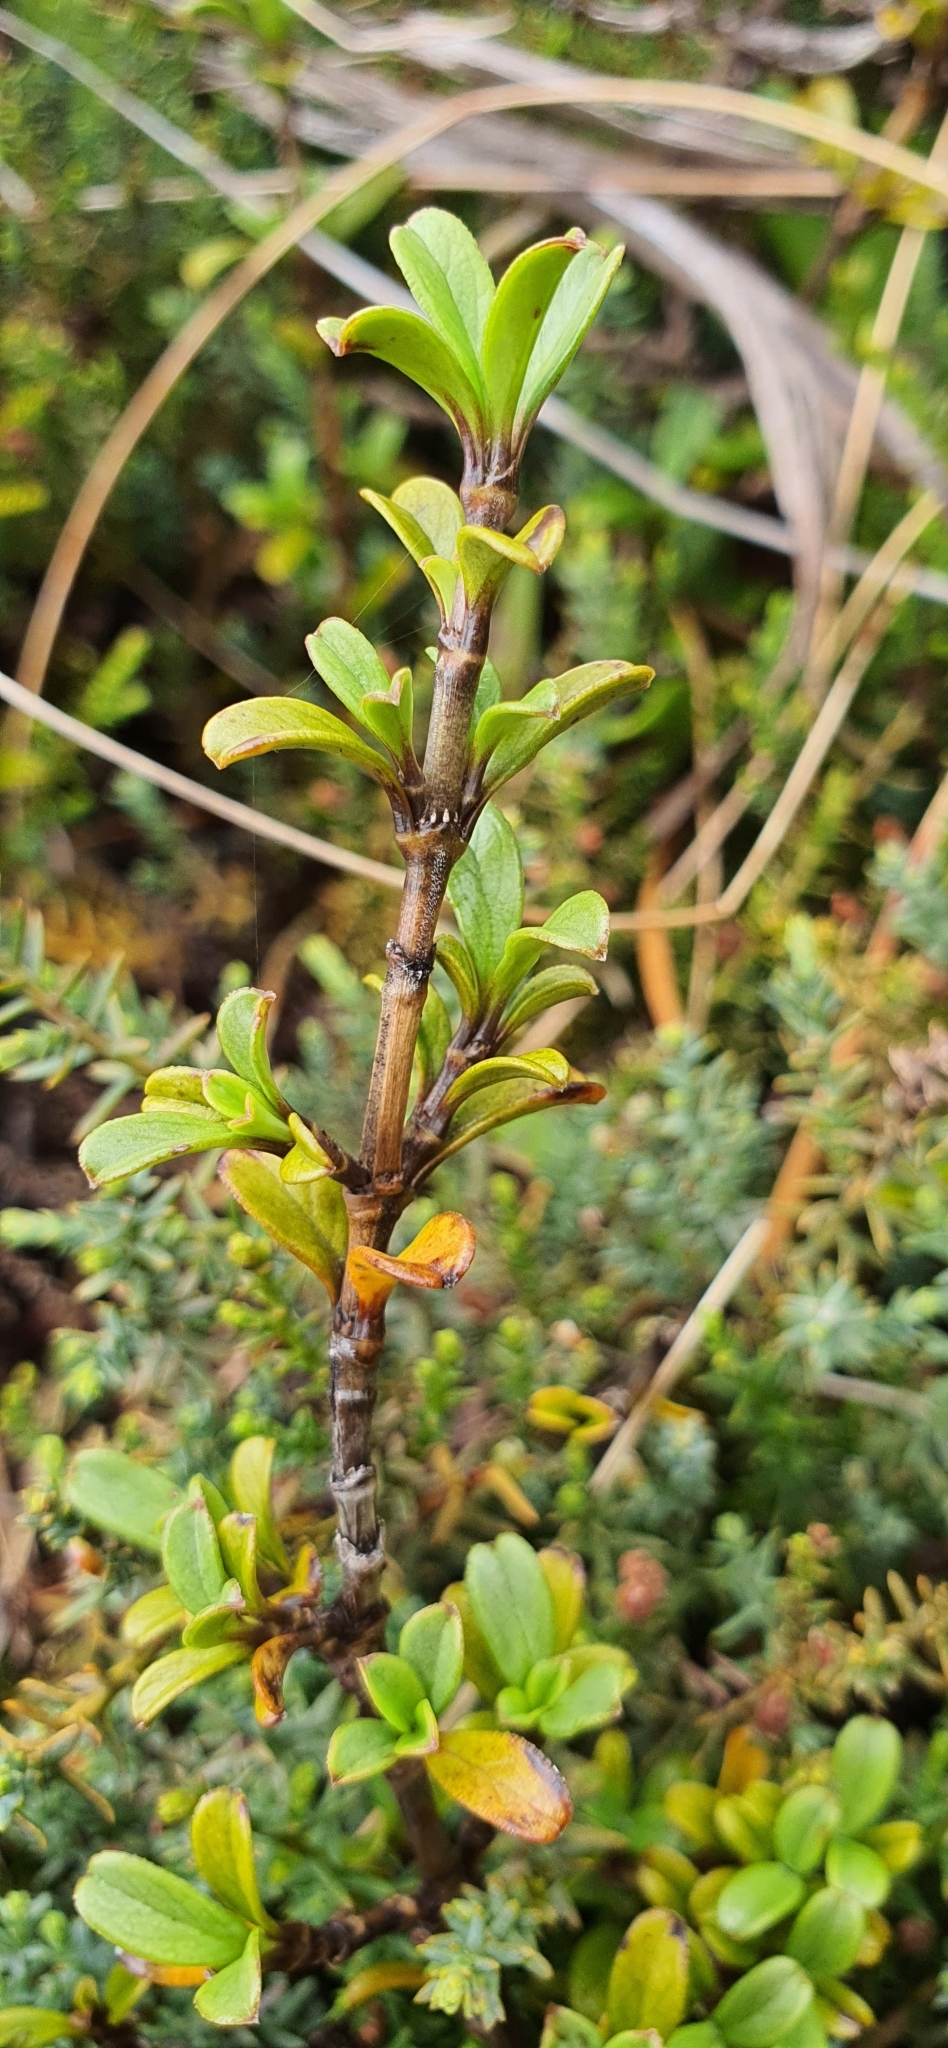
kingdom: Plantae
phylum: Tracheophyta
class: Magnoliopsida
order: Gentianales
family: Rubiaceae
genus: Coprosma
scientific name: Coprosma crenulata
